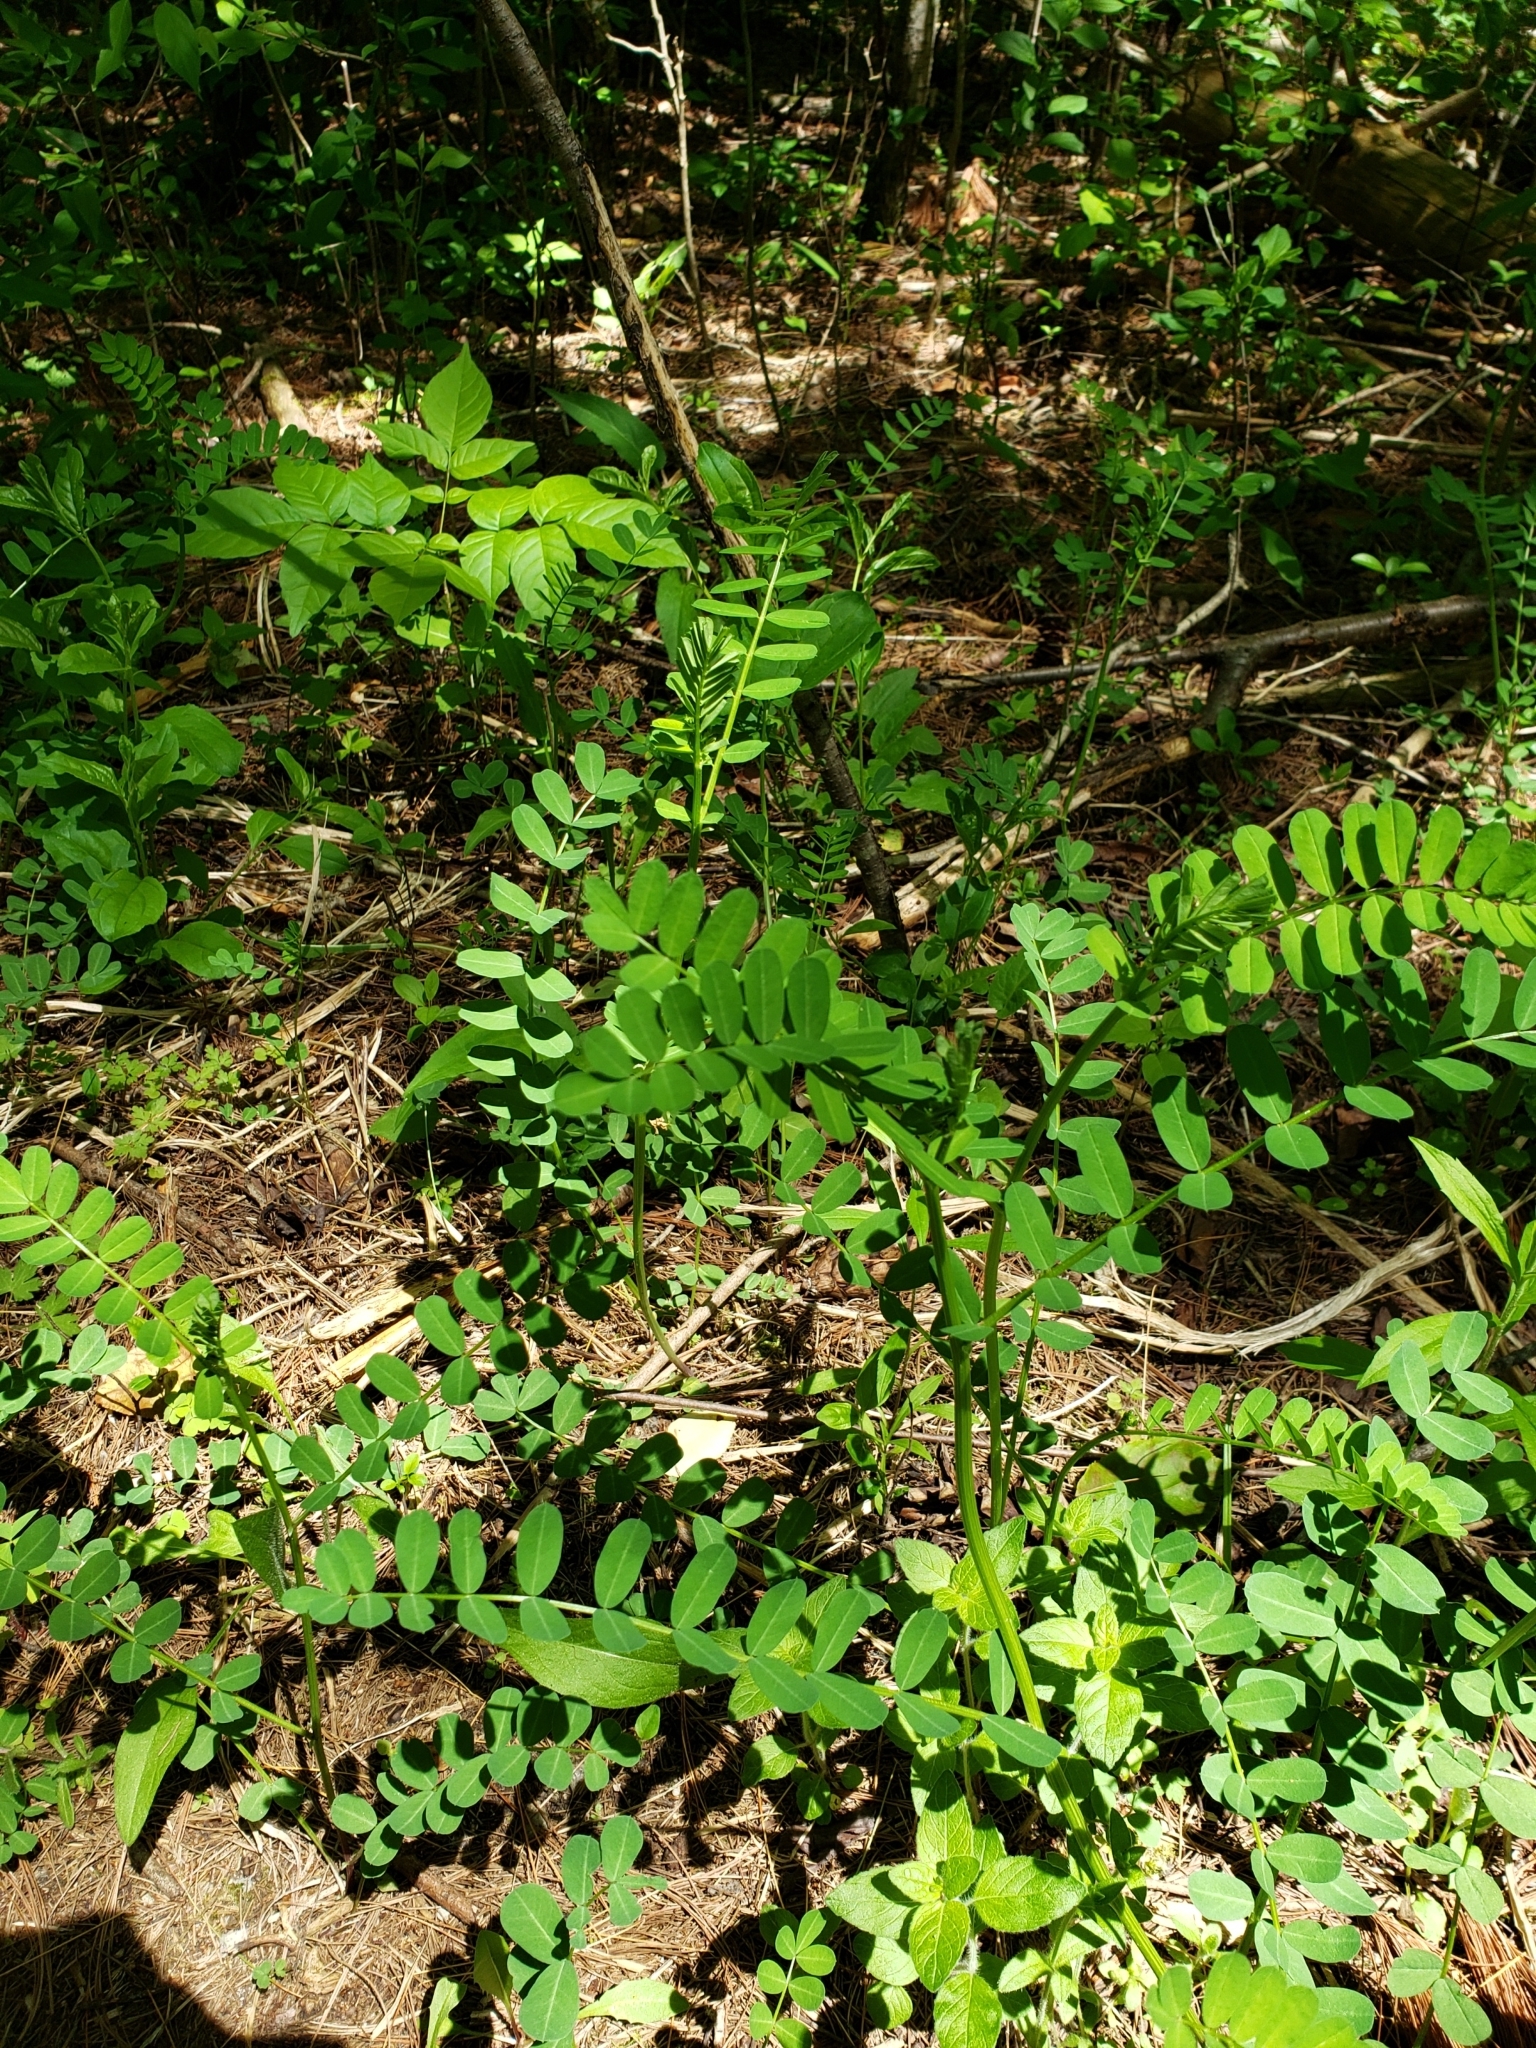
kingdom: Plantae
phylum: Tracheophyta
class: Magnoliopsida
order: Fabales
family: Fabaceae
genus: Coronilla
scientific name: Coronilla varia
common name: Crownvetch
